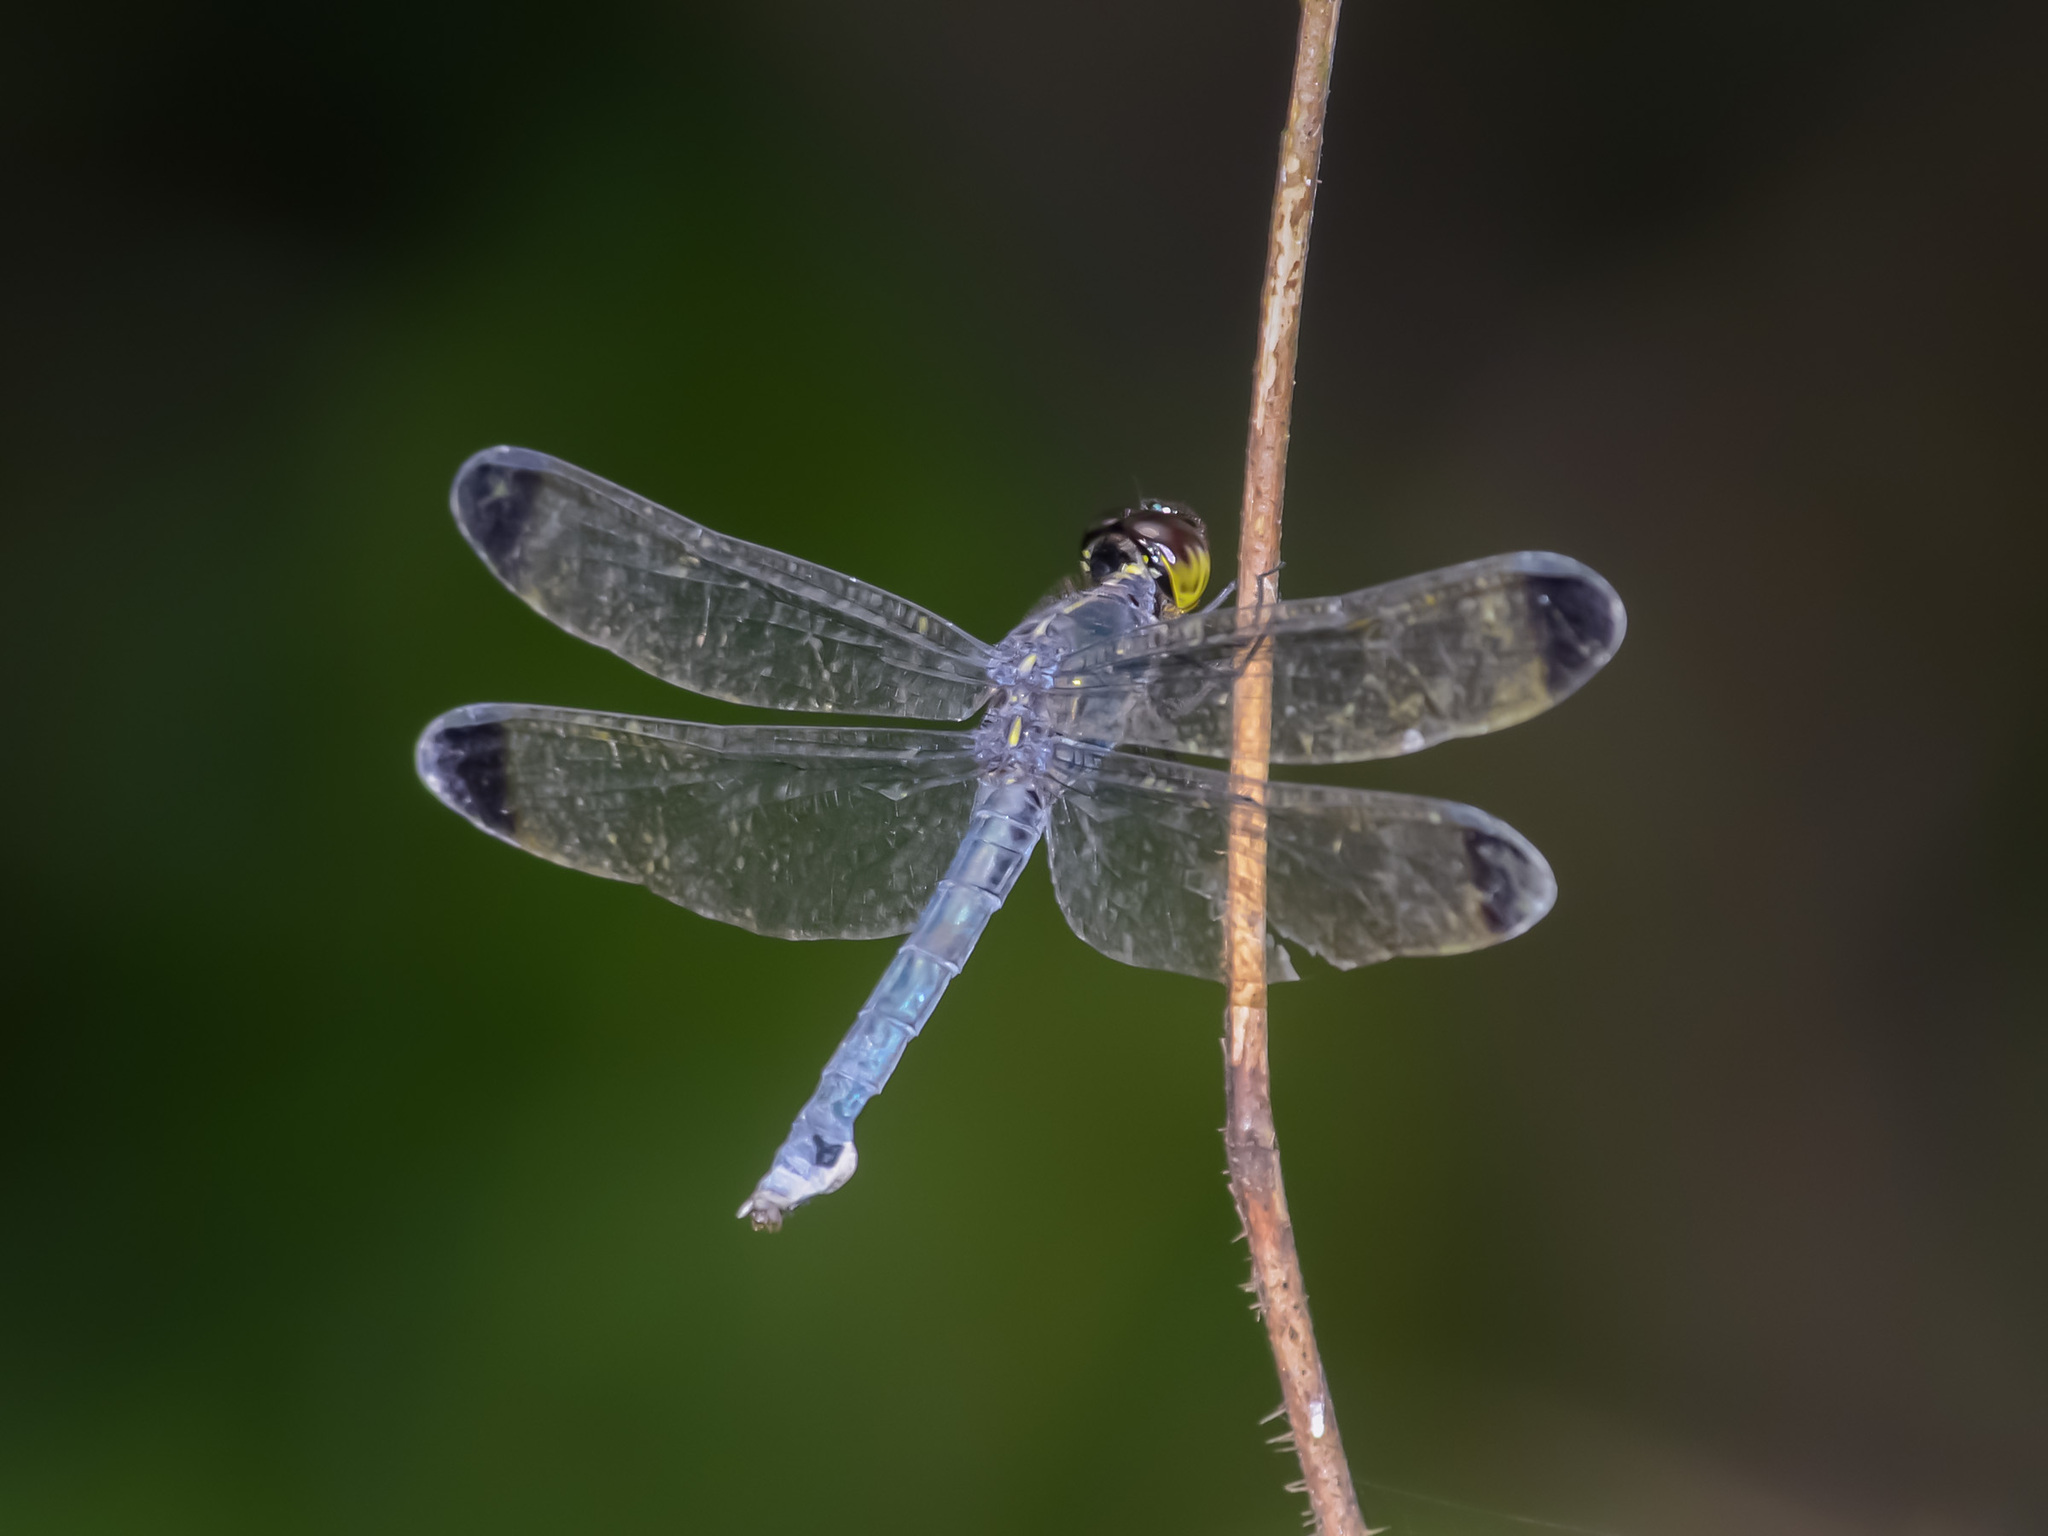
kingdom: Animalia
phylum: Arthropoda
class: Insecta
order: Odonata
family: Libellulidae
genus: Cratilla
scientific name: Cratilla metallica
